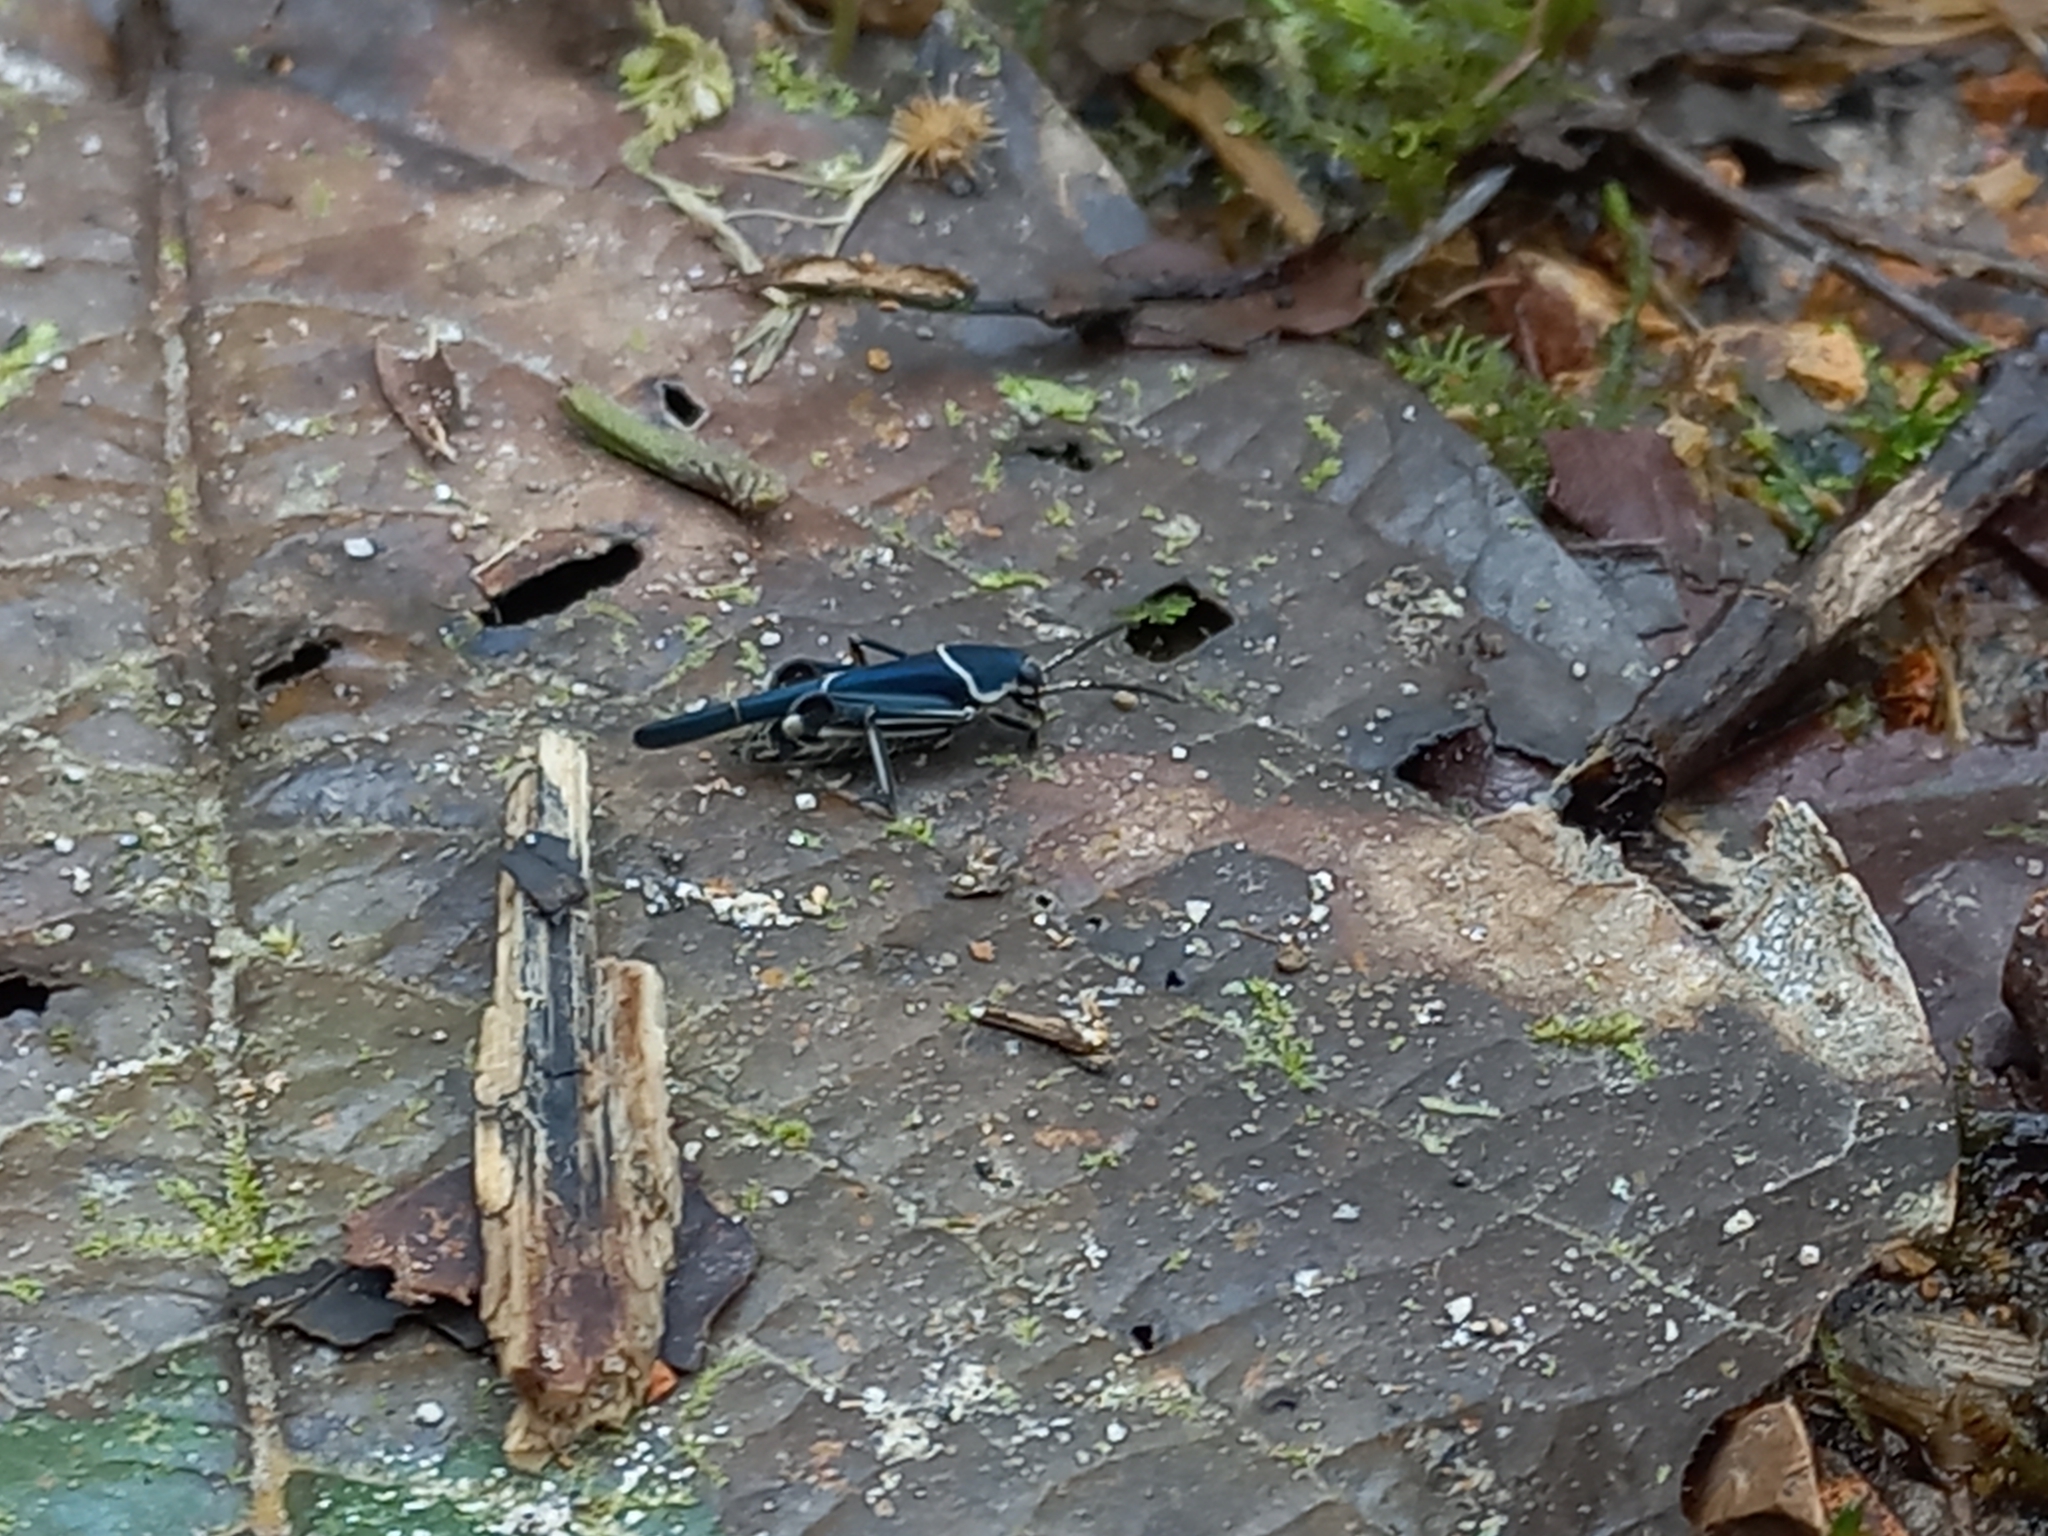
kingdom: Animalia
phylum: Arthropoda
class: Insecta
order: Orthoptera
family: Ripipterygidae
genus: Ripipteryx
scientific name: Ripipteryx limbata
